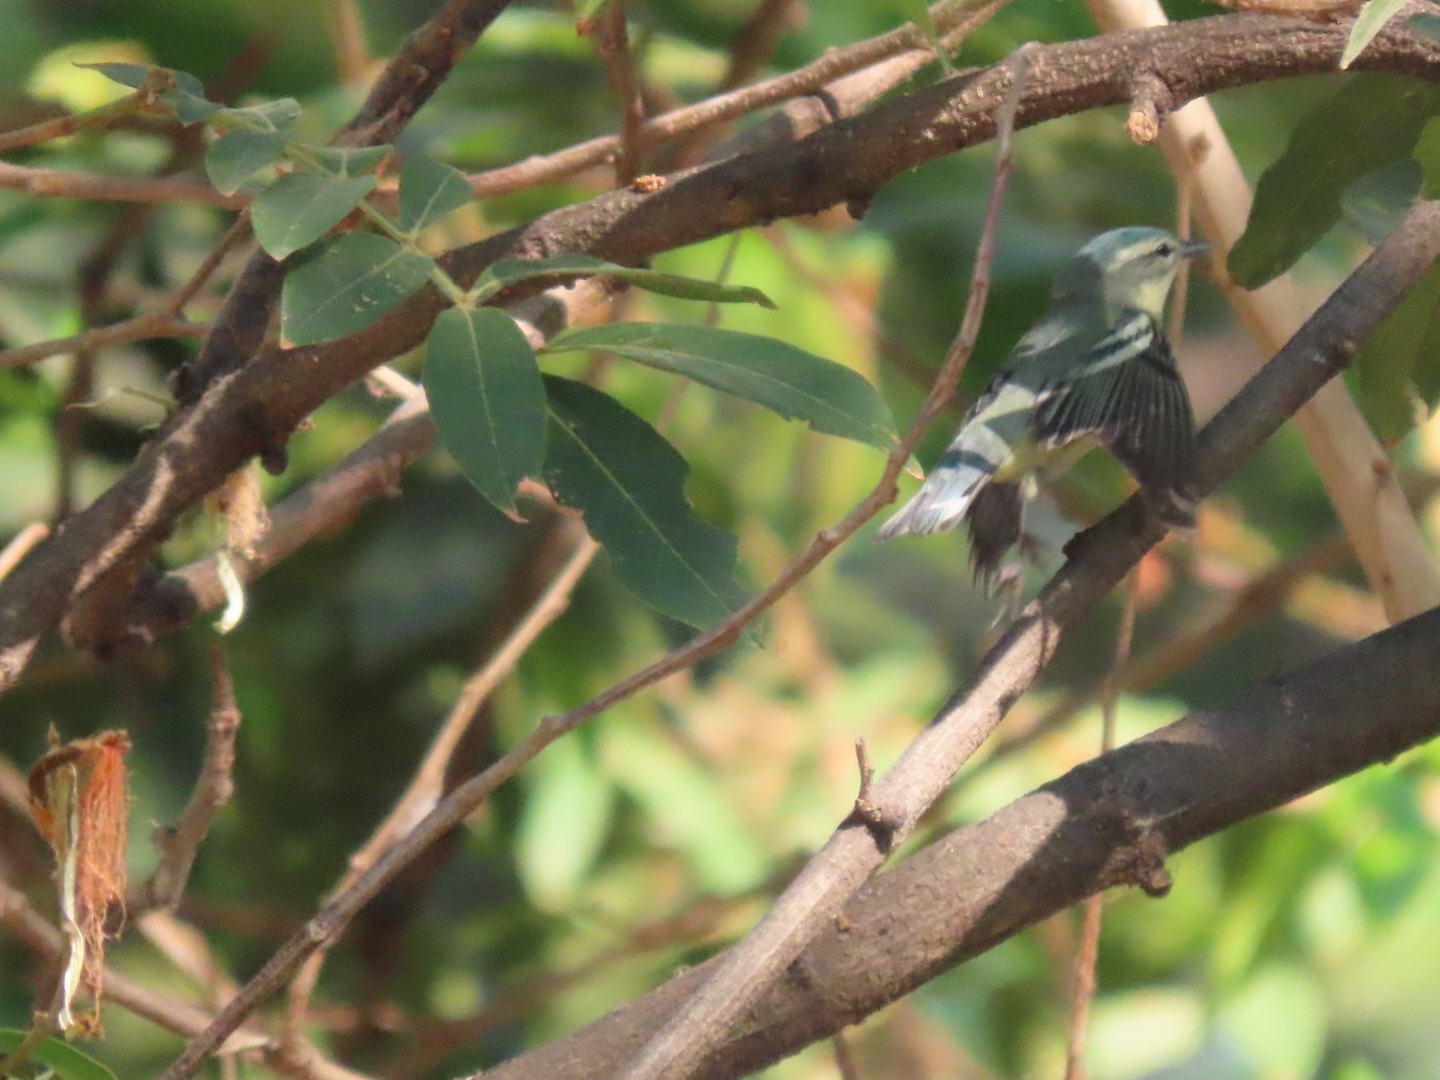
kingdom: Animalia
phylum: Chordata
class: Aves
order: Passeriformes
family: Parulidae
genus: Setophaga
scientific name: Setophaga cerulea
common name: Cerulean warbler
